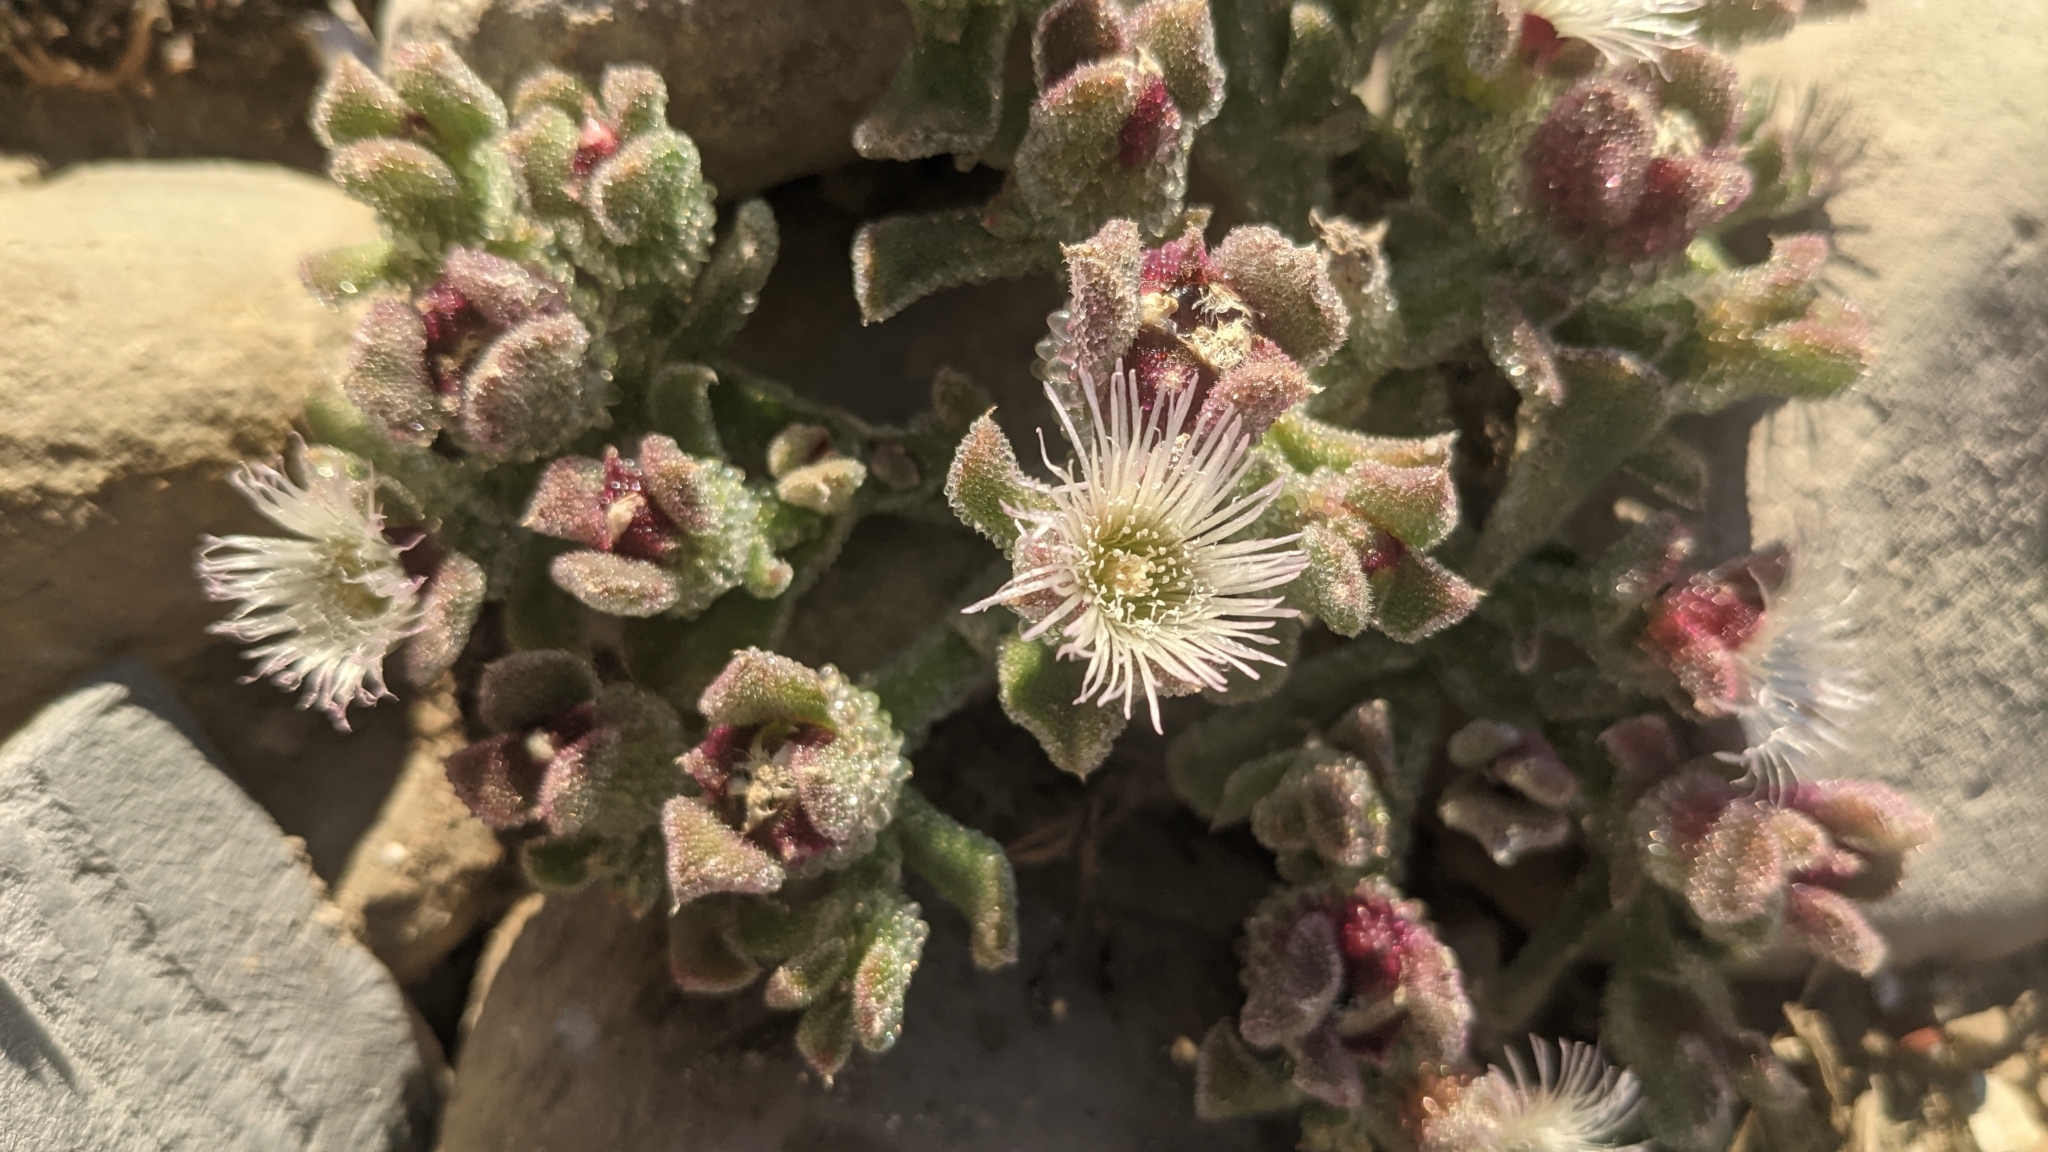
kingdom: Plantae
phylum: Tracheophyta
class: Magnoliopsida
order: Caryophyllales
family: Aizoaceae
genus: Mesembryanthemum
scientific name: Mesembryanthemum crystallinum
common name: Common iceplant
